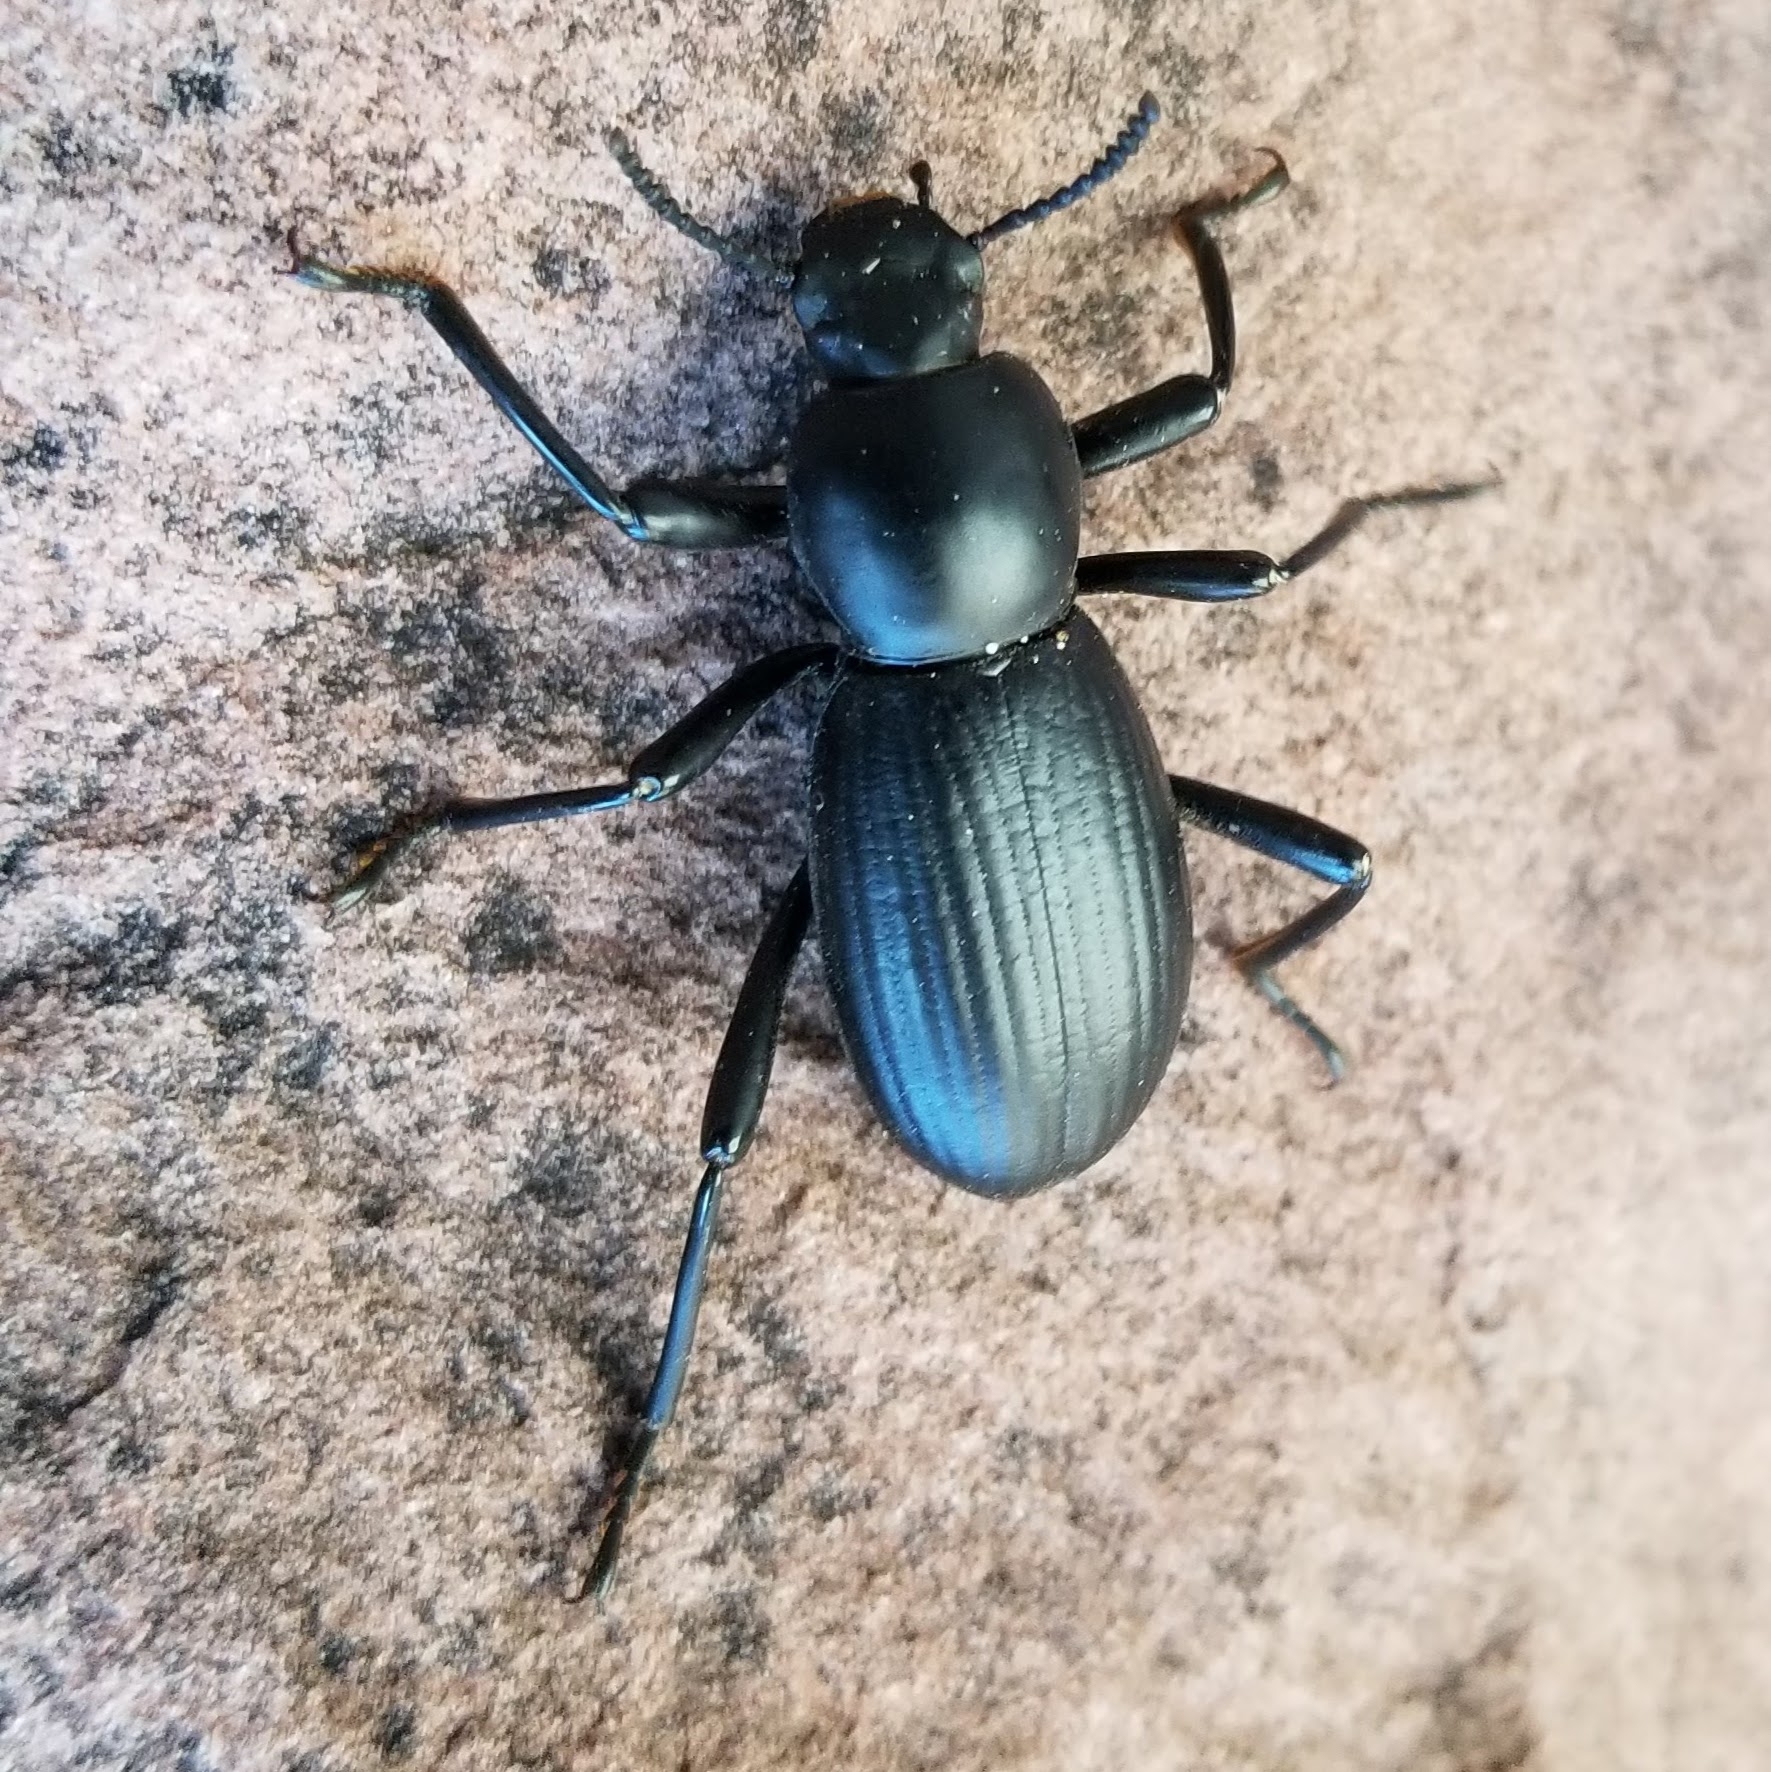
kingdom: Animalia
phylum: Arthropoda
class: Insecta
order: Coleoptera
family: Tenebrionidae
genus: Coelocnemis
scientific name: Coelocnemis sulcata
